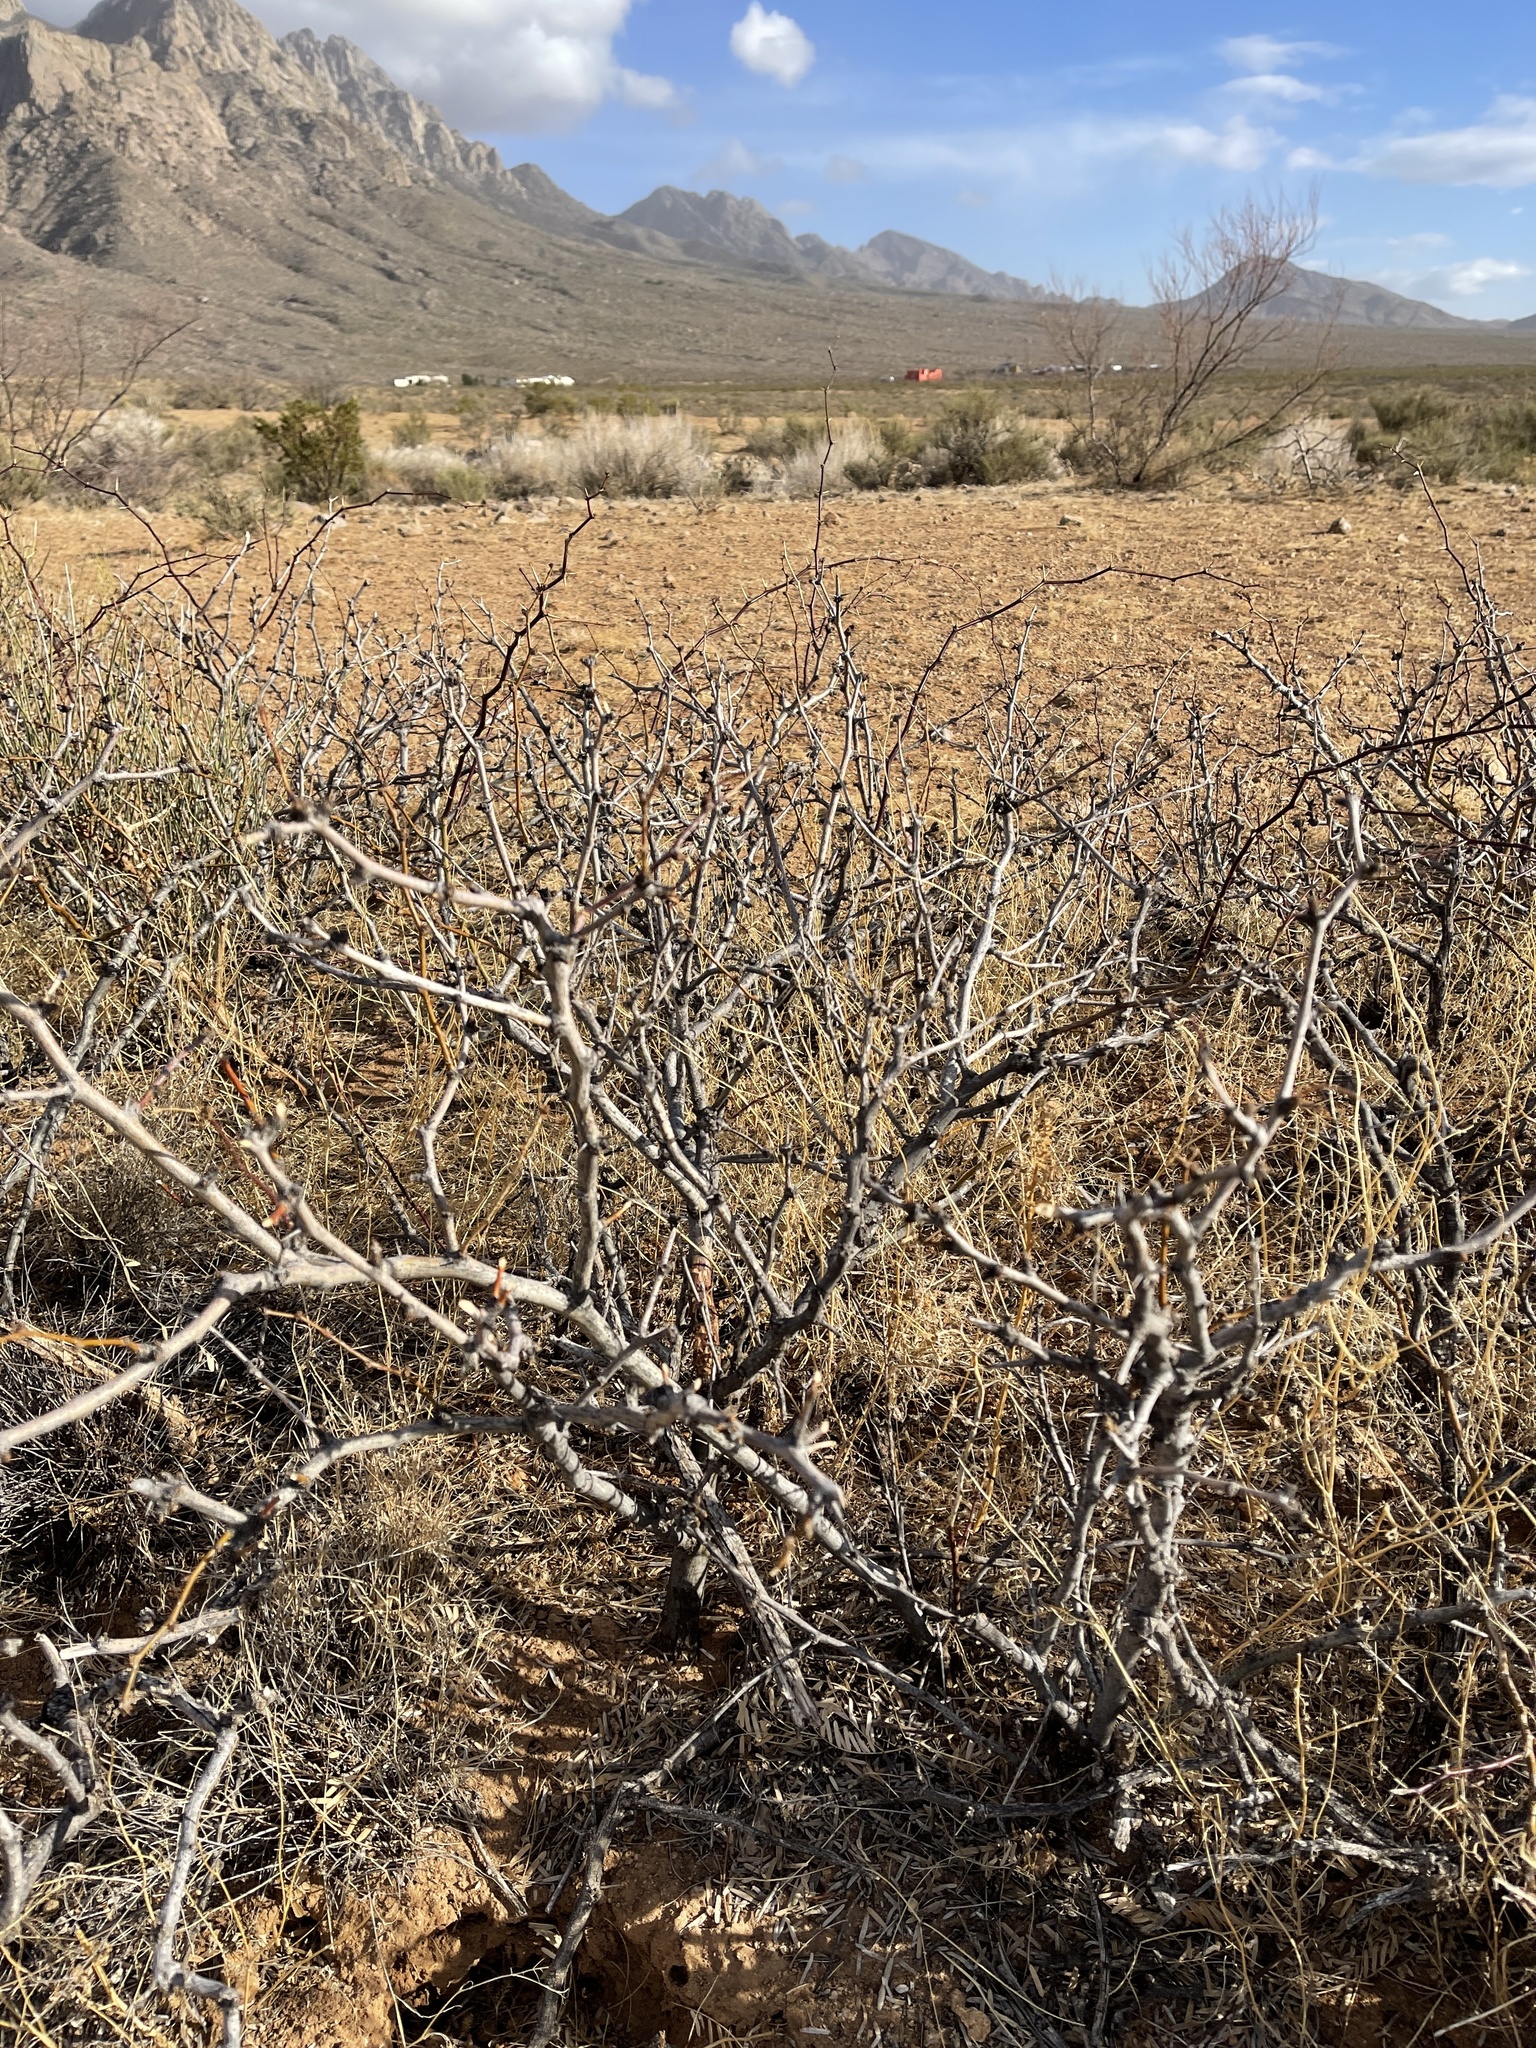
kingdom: Plantae
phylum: Tracheophyta
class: Magnoliopsida
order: Fabales
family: Fabaceae
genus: Prosopis
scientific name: Prosopis glandulosa
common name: Honey mesquite
